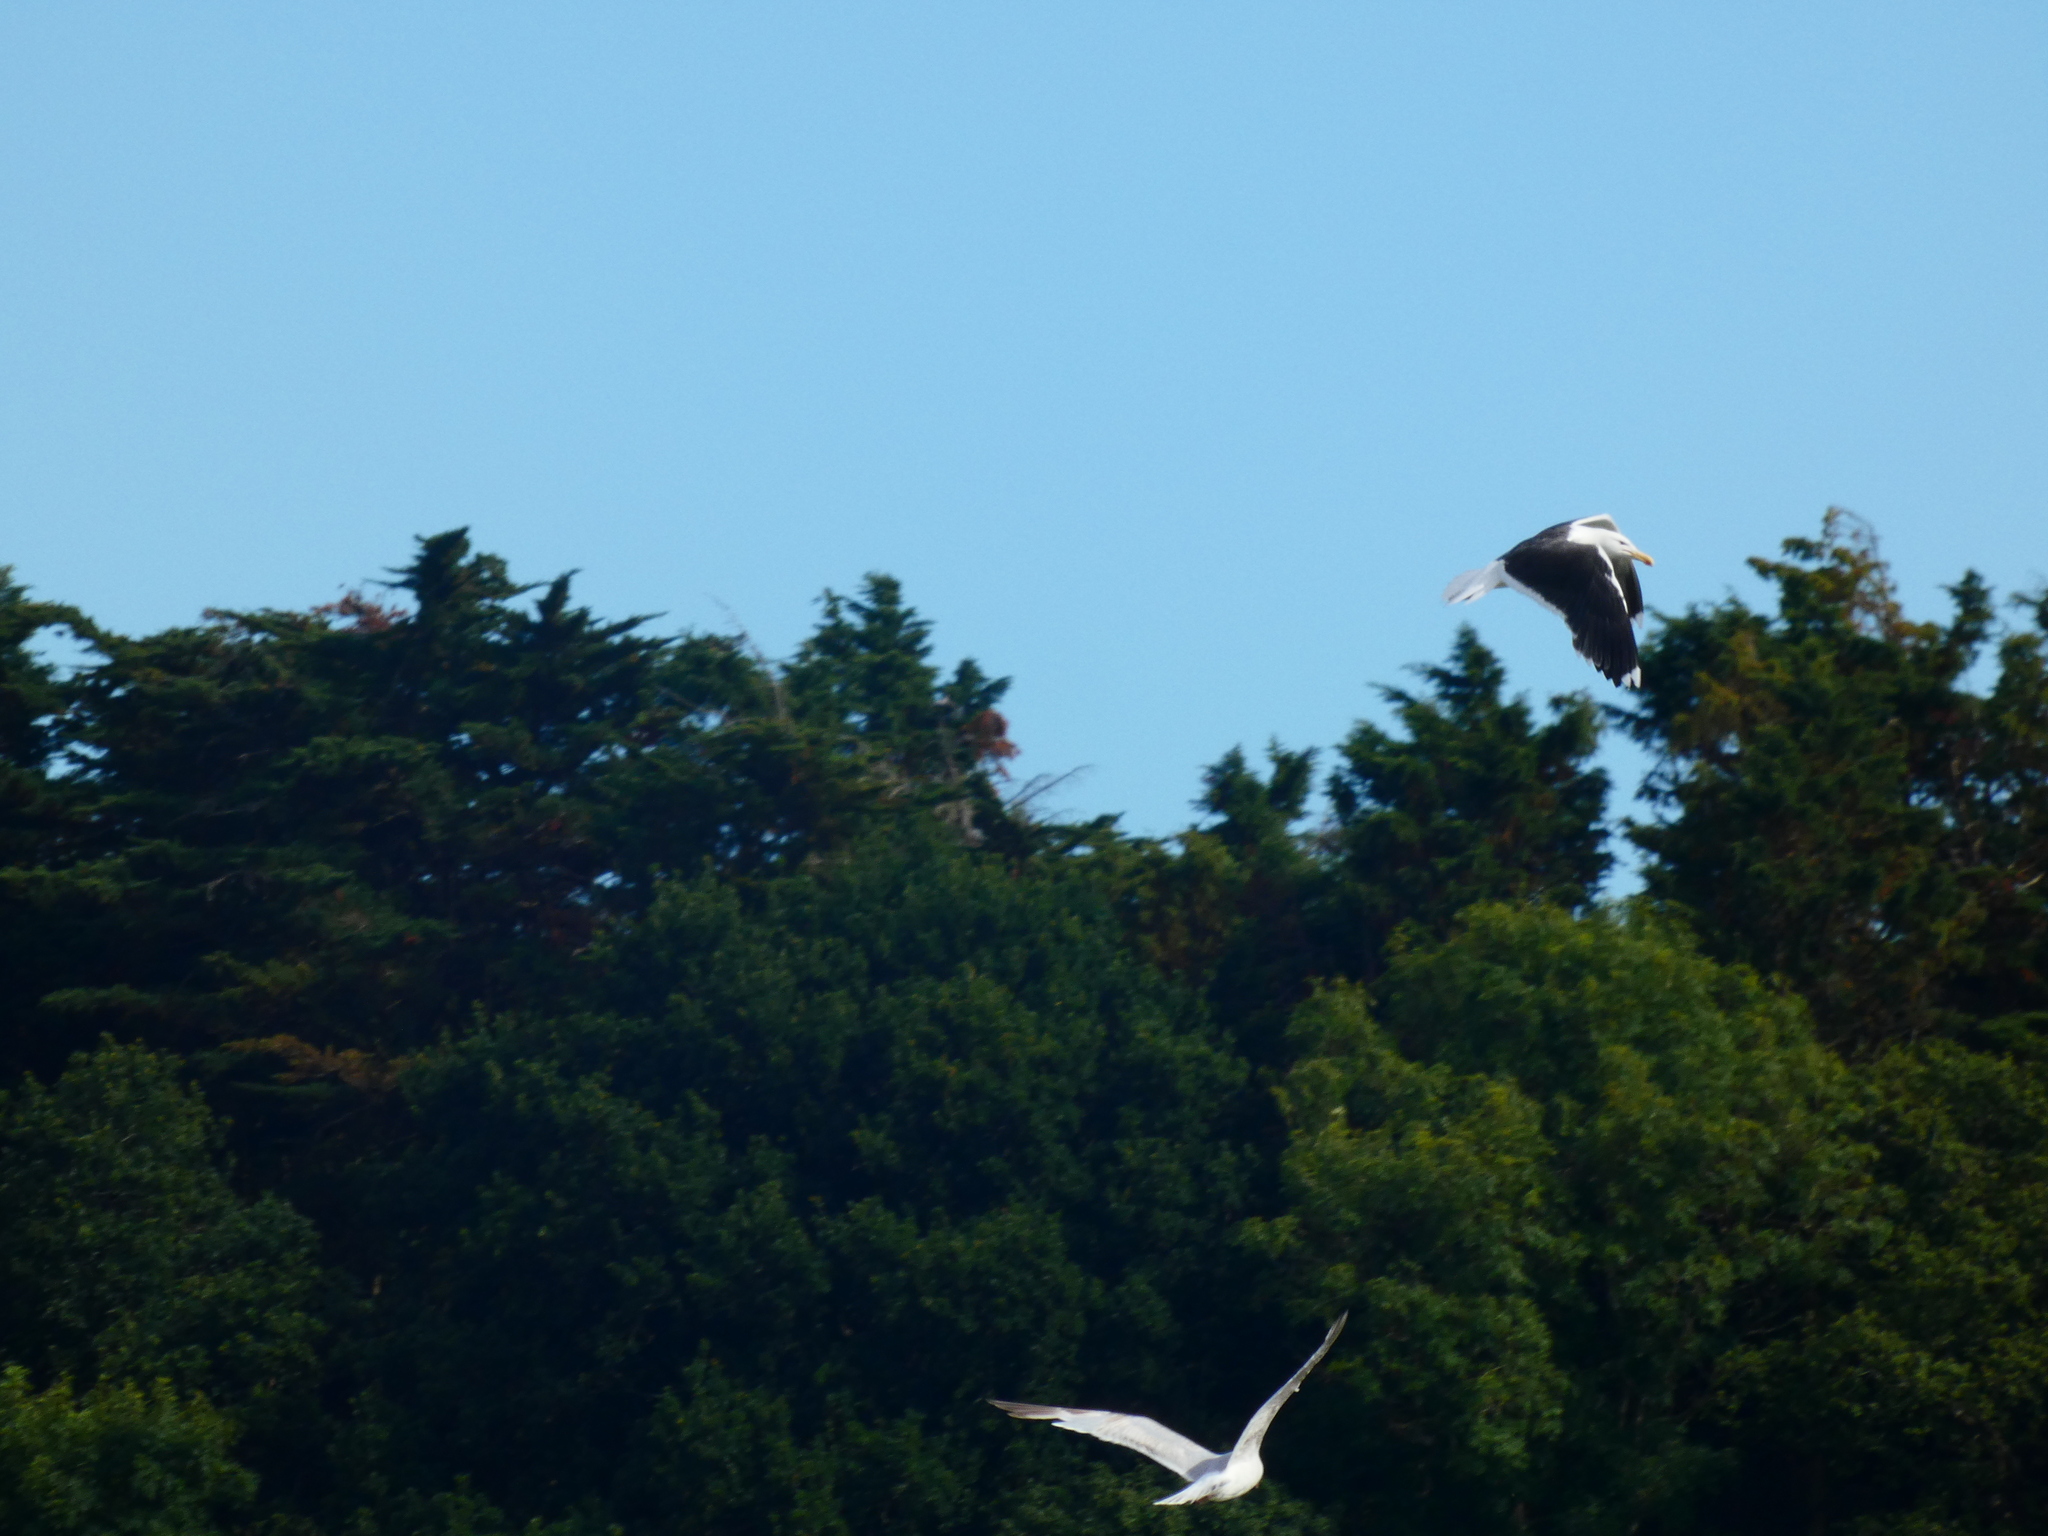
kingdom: Animalia
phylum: Chordata
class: Aves
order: Charadriiformes
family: Laridae
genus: Larus
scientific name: Larus marinus
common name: Great black-backed gull
